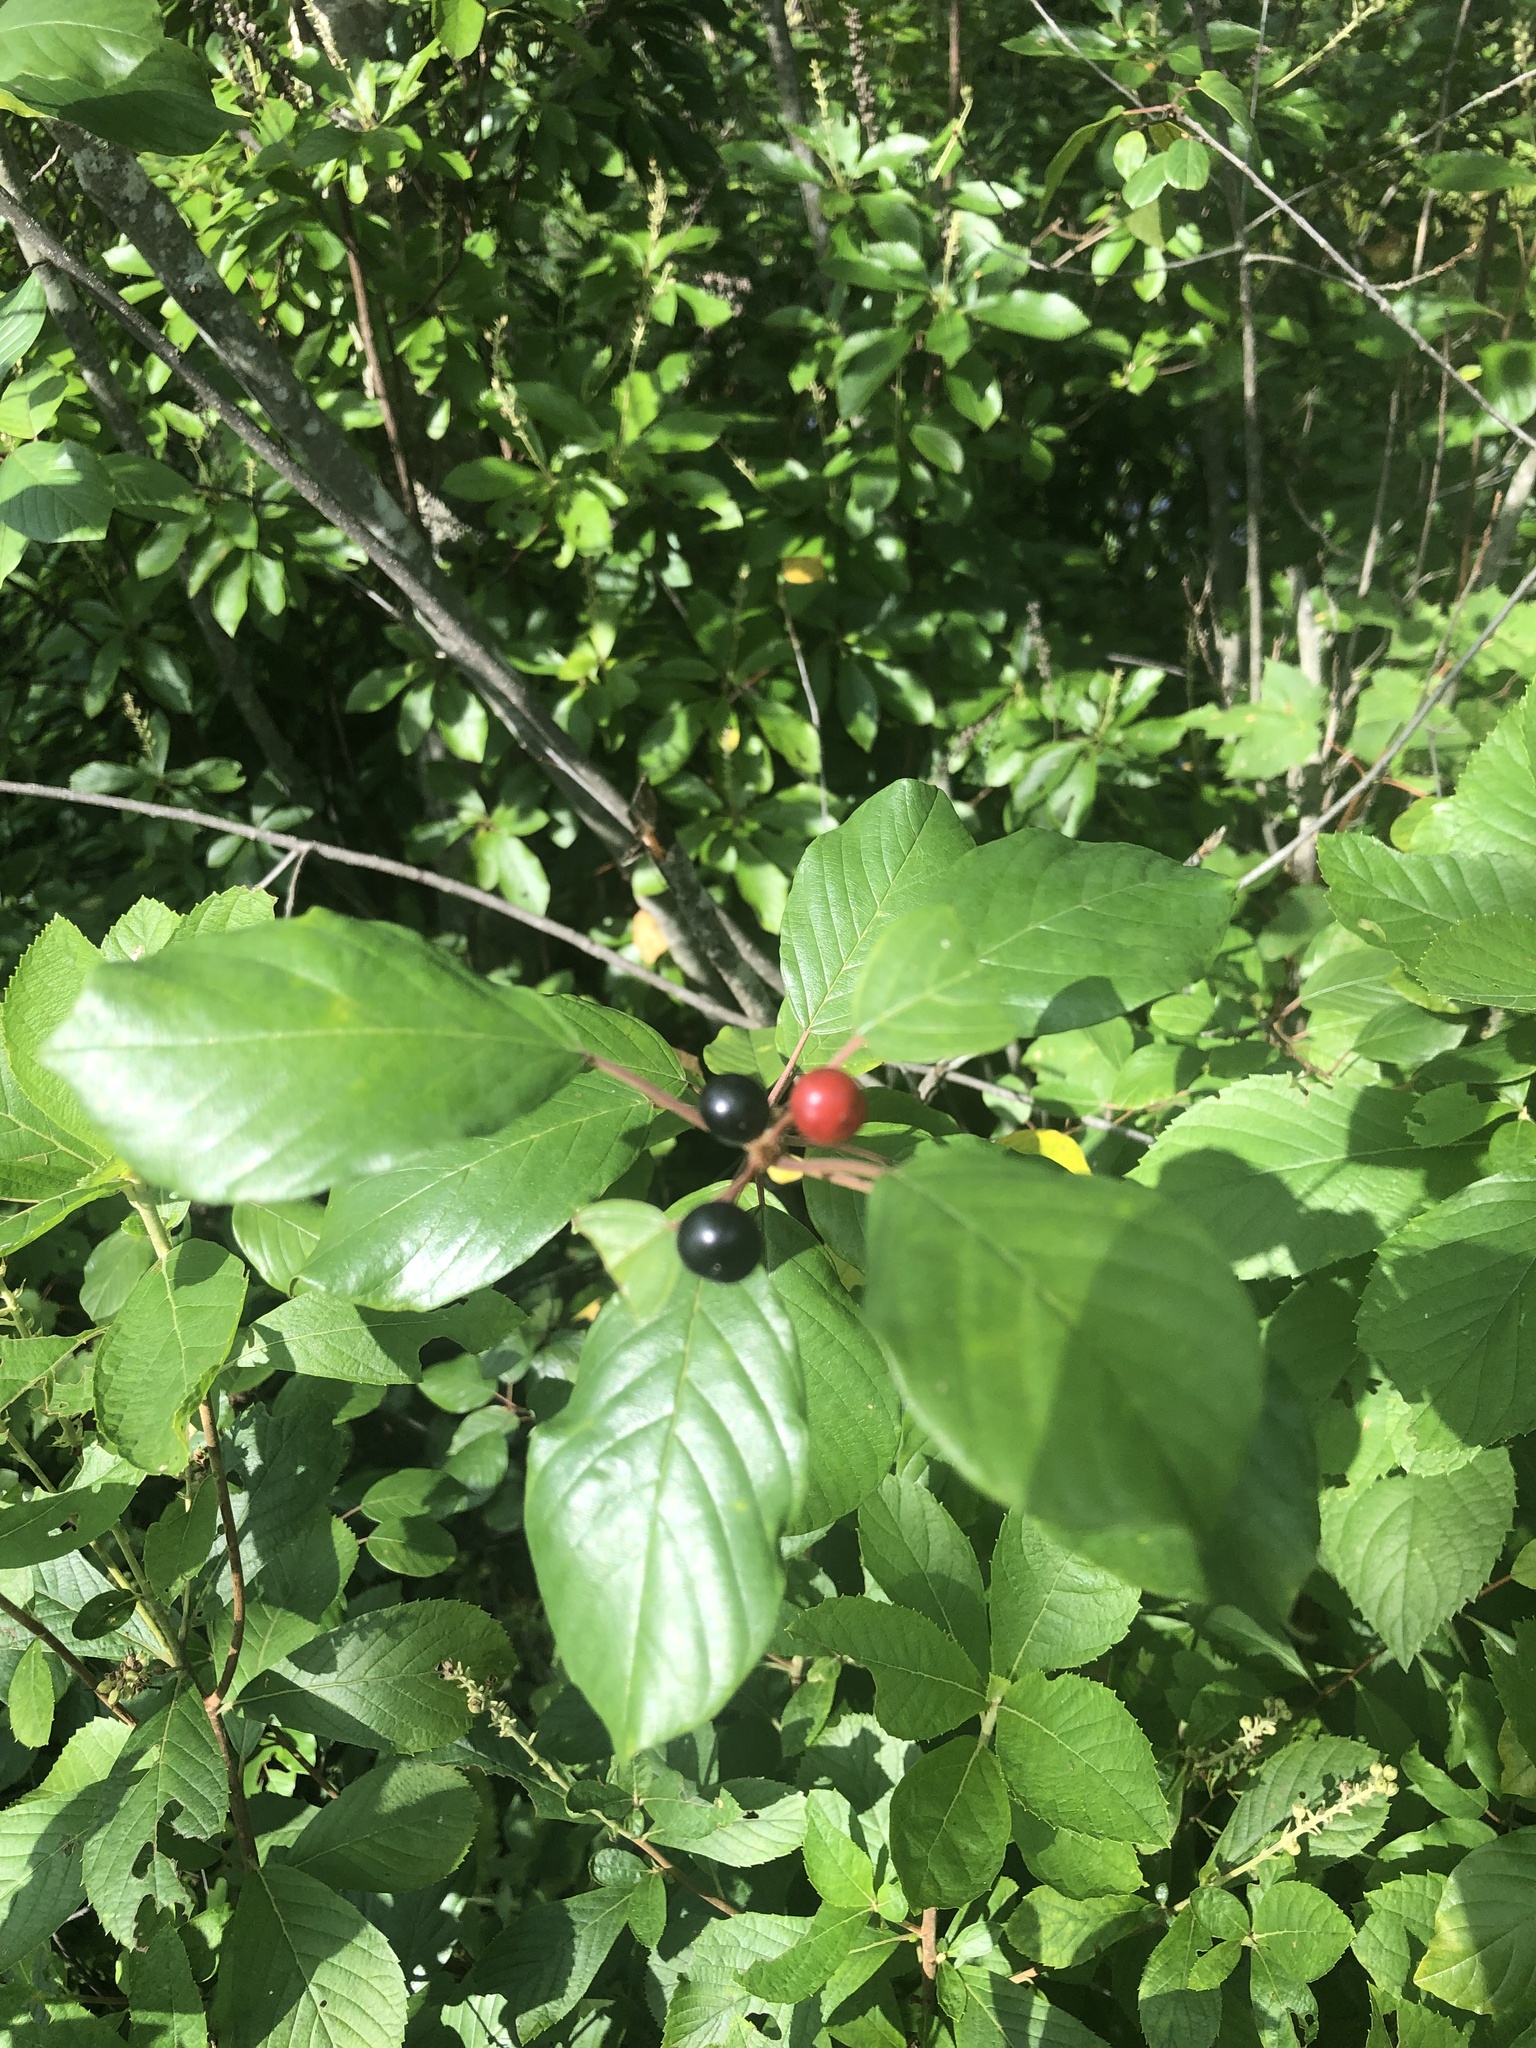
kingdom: Plantae
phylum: Tracheophyta
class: Magnoliopsida
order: Rosales
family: Rhamnaceae
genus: Frangula
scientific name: Frangula alnus
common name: Alder buckthorn
